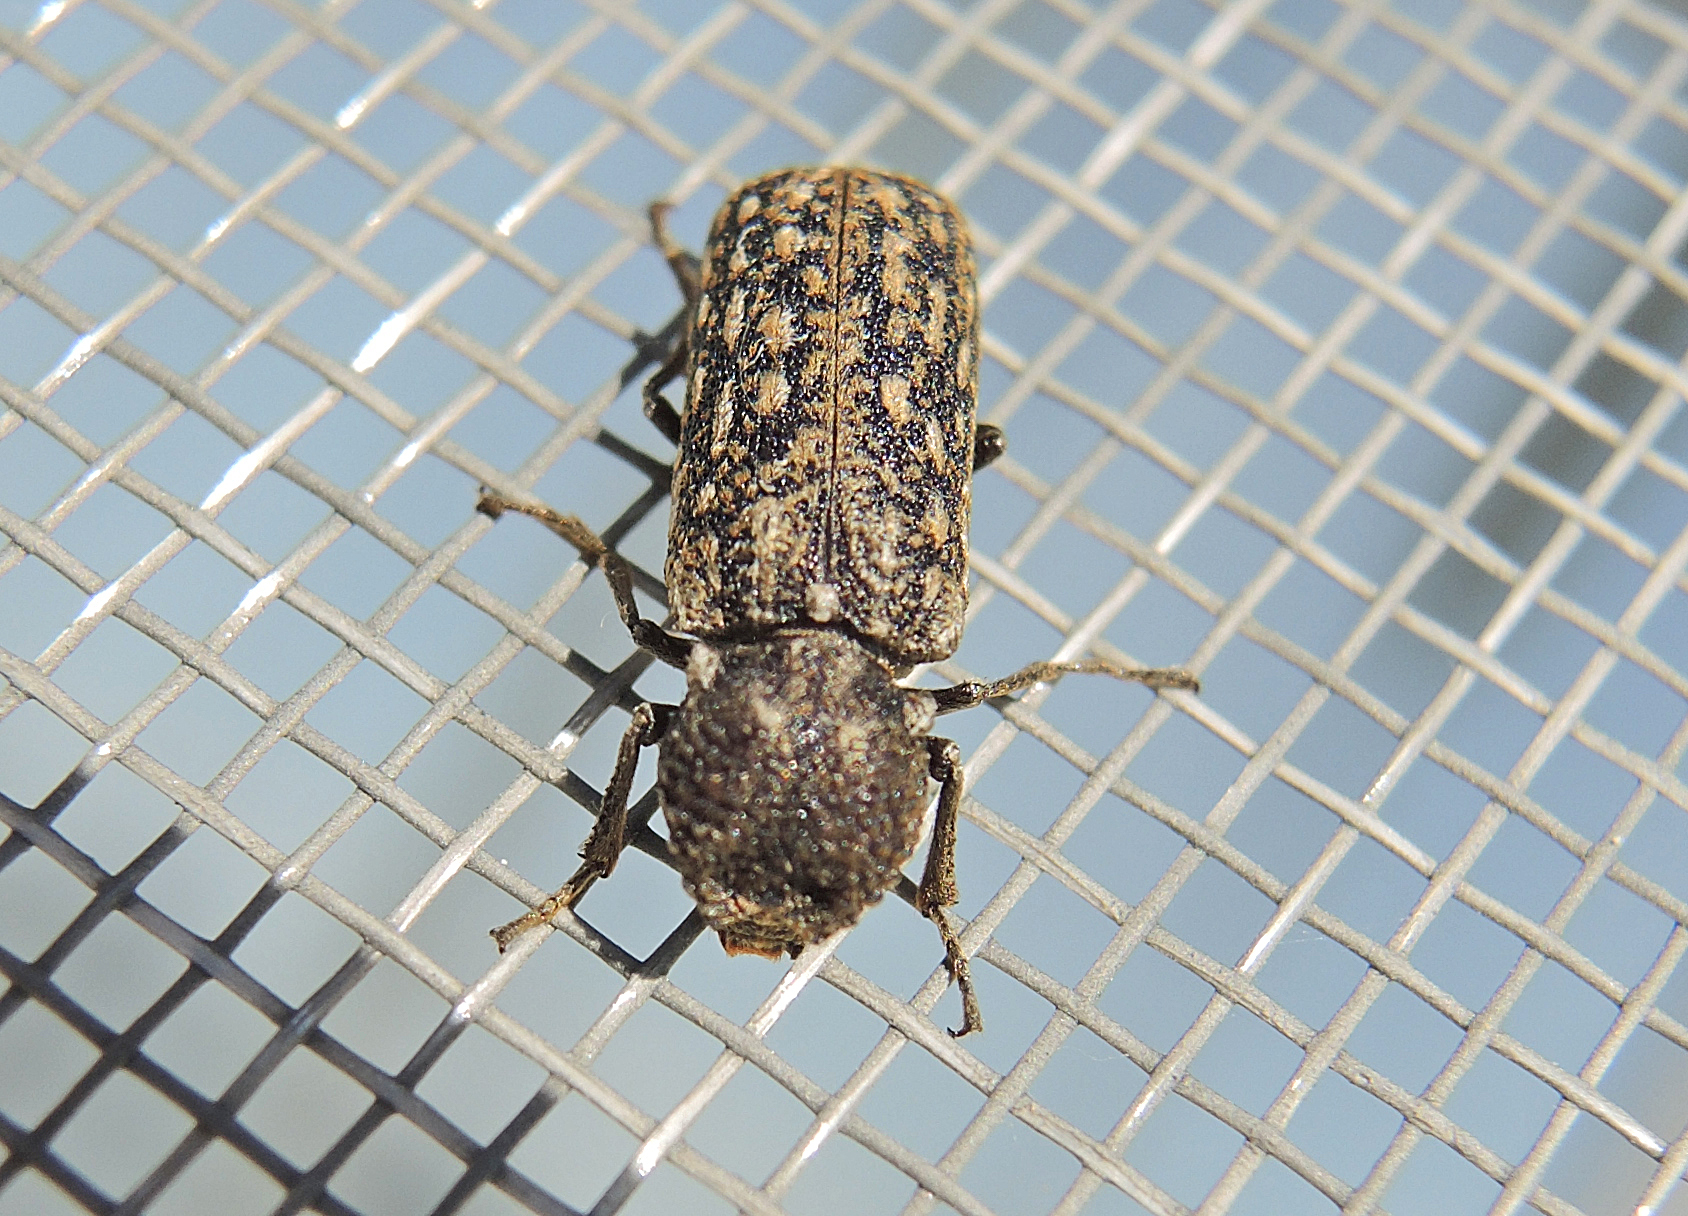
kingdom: Animalia
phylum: Arthropoda
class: Insecta
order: Coleoptera
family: Bostrichidae
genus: Lichenophanes
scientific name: Lichenophanes varius
